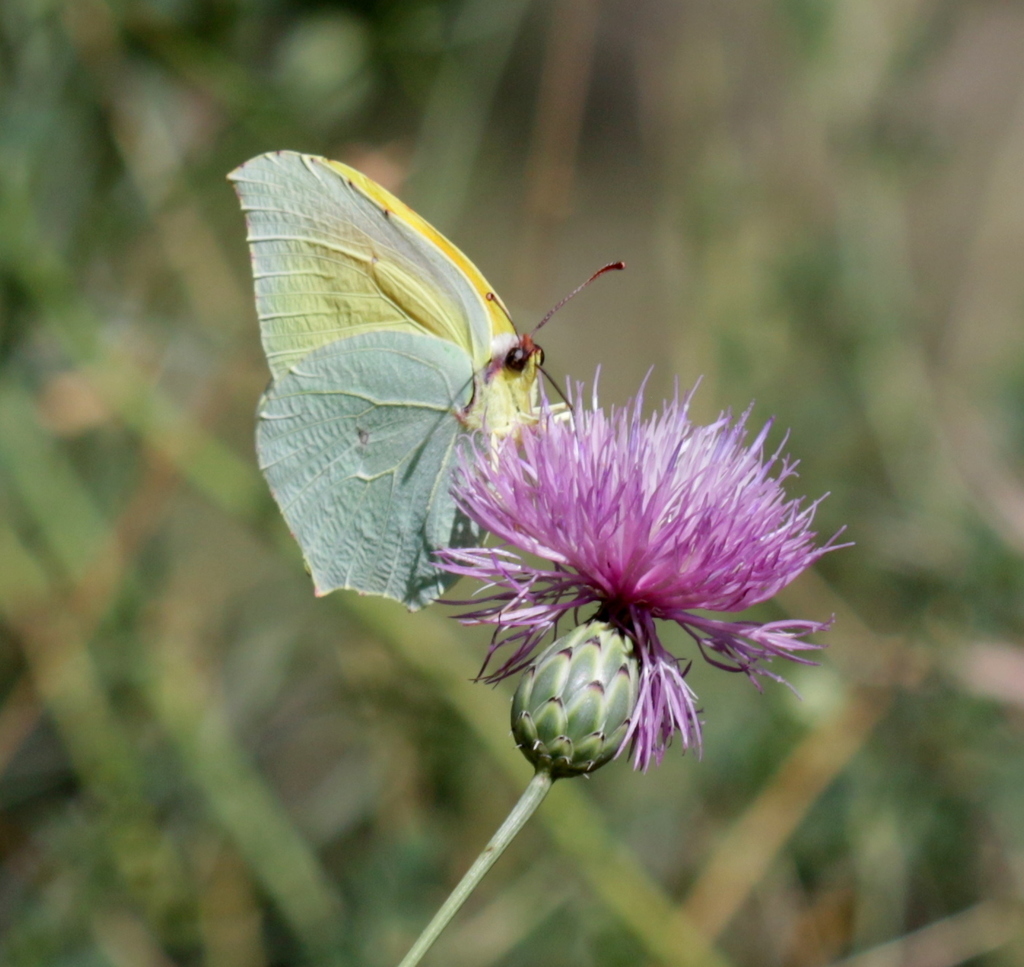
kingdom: Animalia
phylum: Arthropoda
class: Insecta
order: Lepidoptera
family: Pieridae
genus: Gonepteryx
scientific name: Gonepteryx cleopatra
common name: Cleopatra
